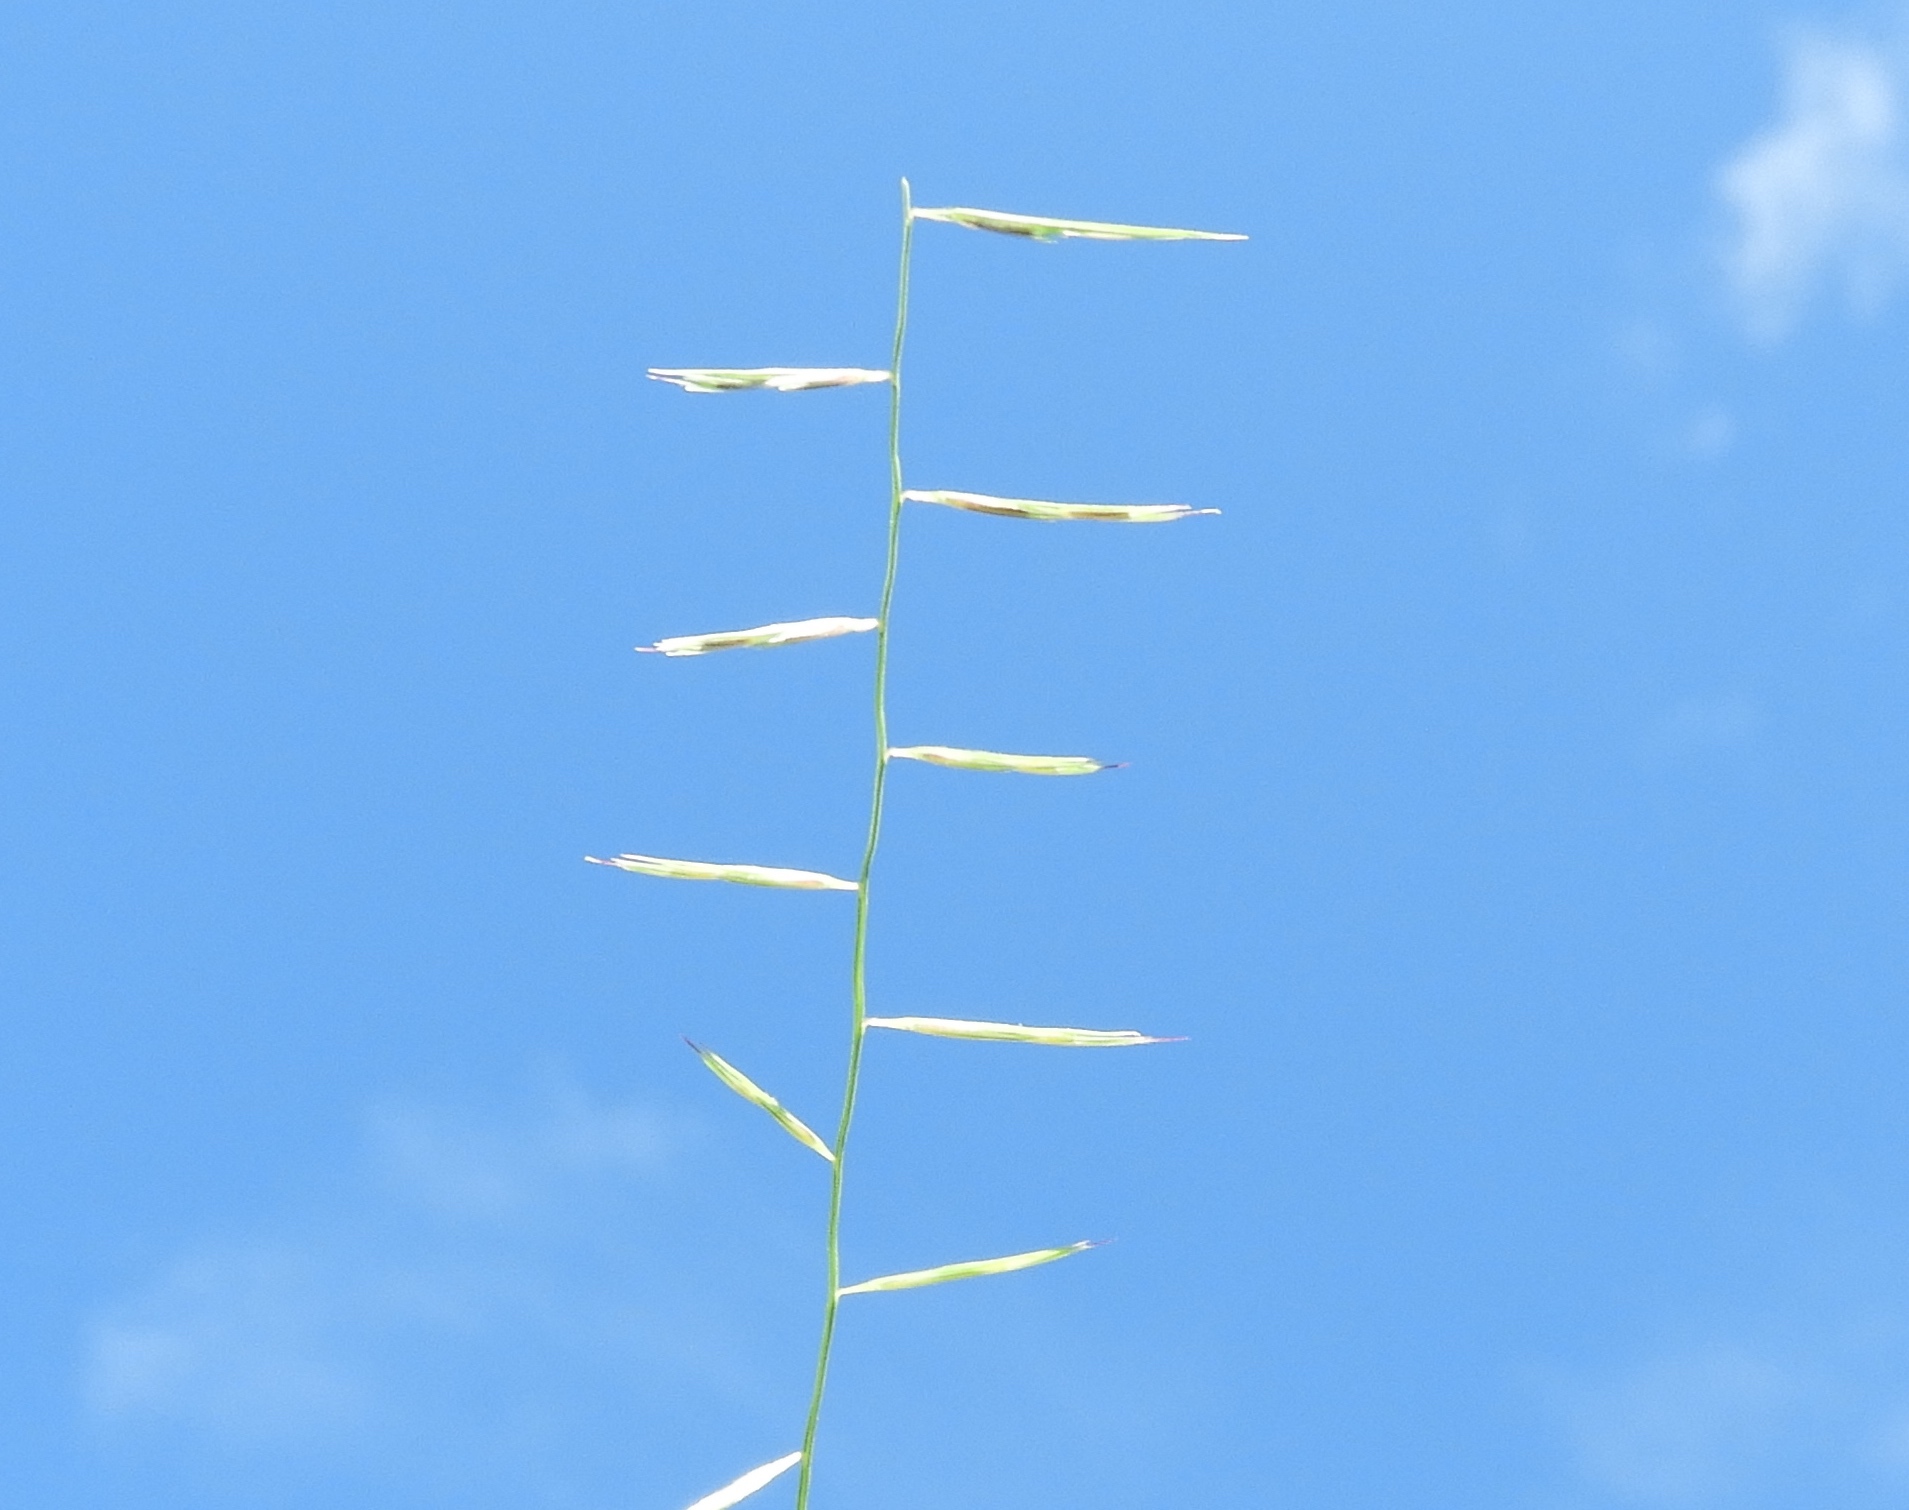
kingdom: Plantae
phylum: Tracheophyta
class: Liliopsida
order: Poales
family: Poaceae
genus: Bouteloua
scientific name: Bouteloua
